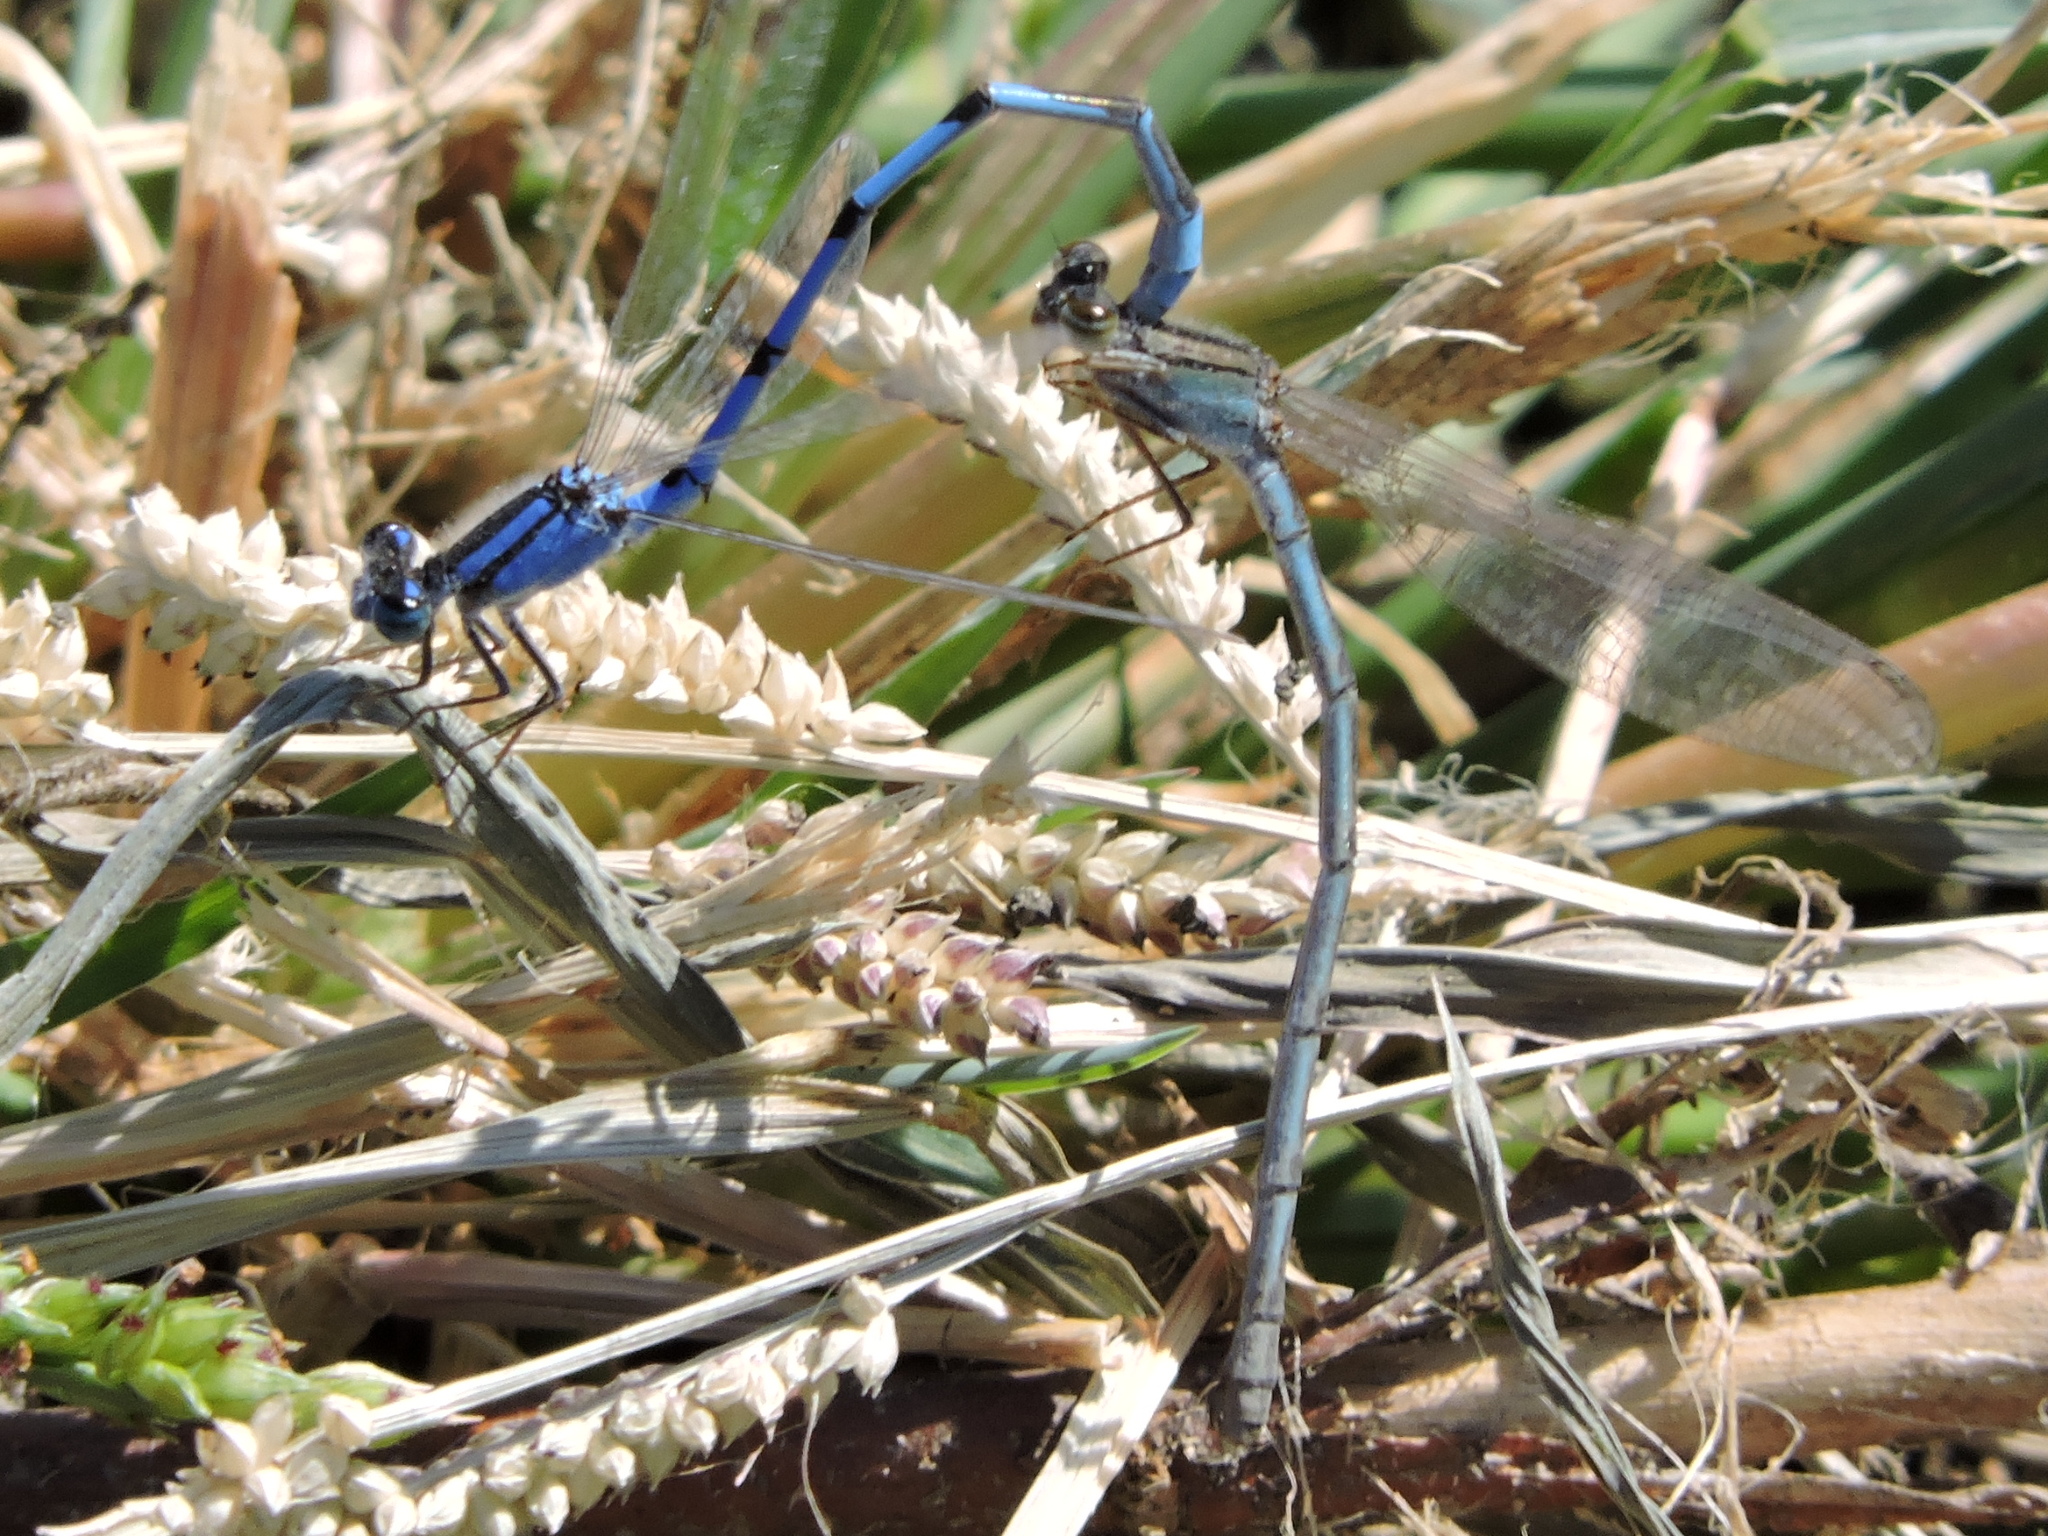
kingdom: Animalia
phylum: Arthropoda
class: Insecta
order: Odonata
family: Coenagrionidae
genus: Enallagma
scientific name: Enallagma civile
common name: Damselfly
